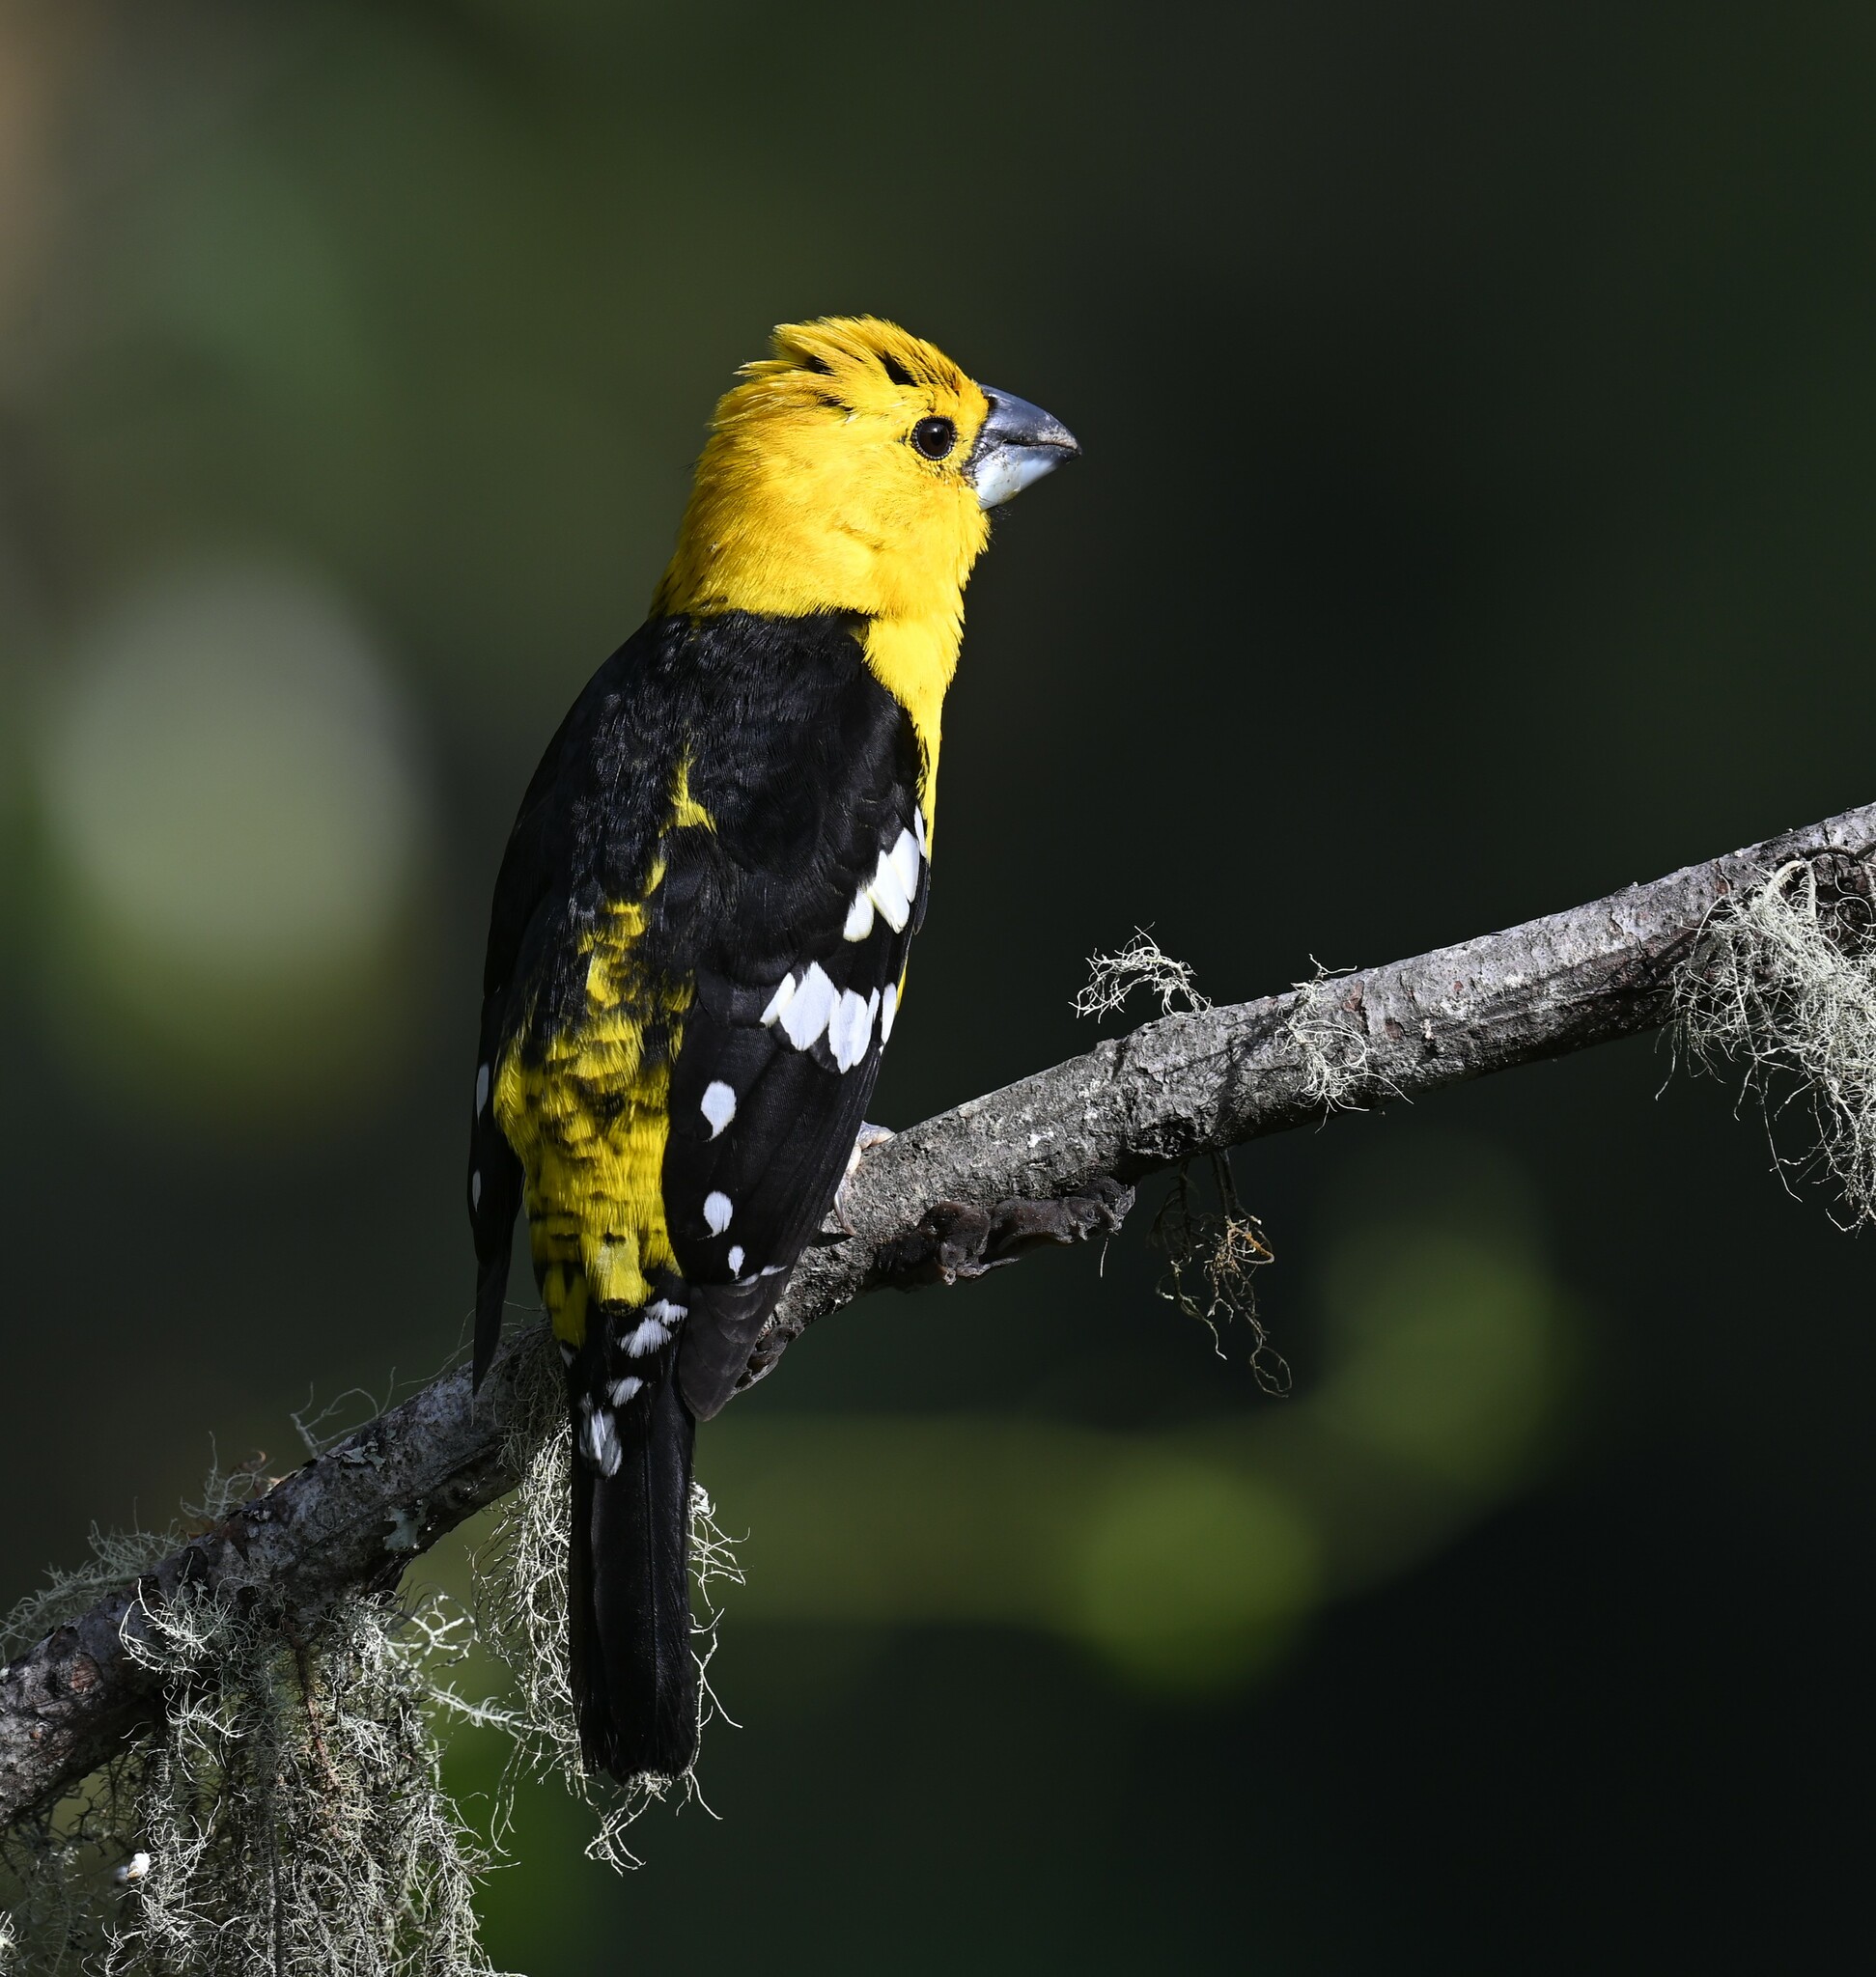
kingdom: Animalia
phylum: Chordata
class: Aves
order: Passeriformes
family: Cardinalidae
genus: Pheucticus
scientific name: Pheucticus chrysogaster
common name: Golden grosbeak
